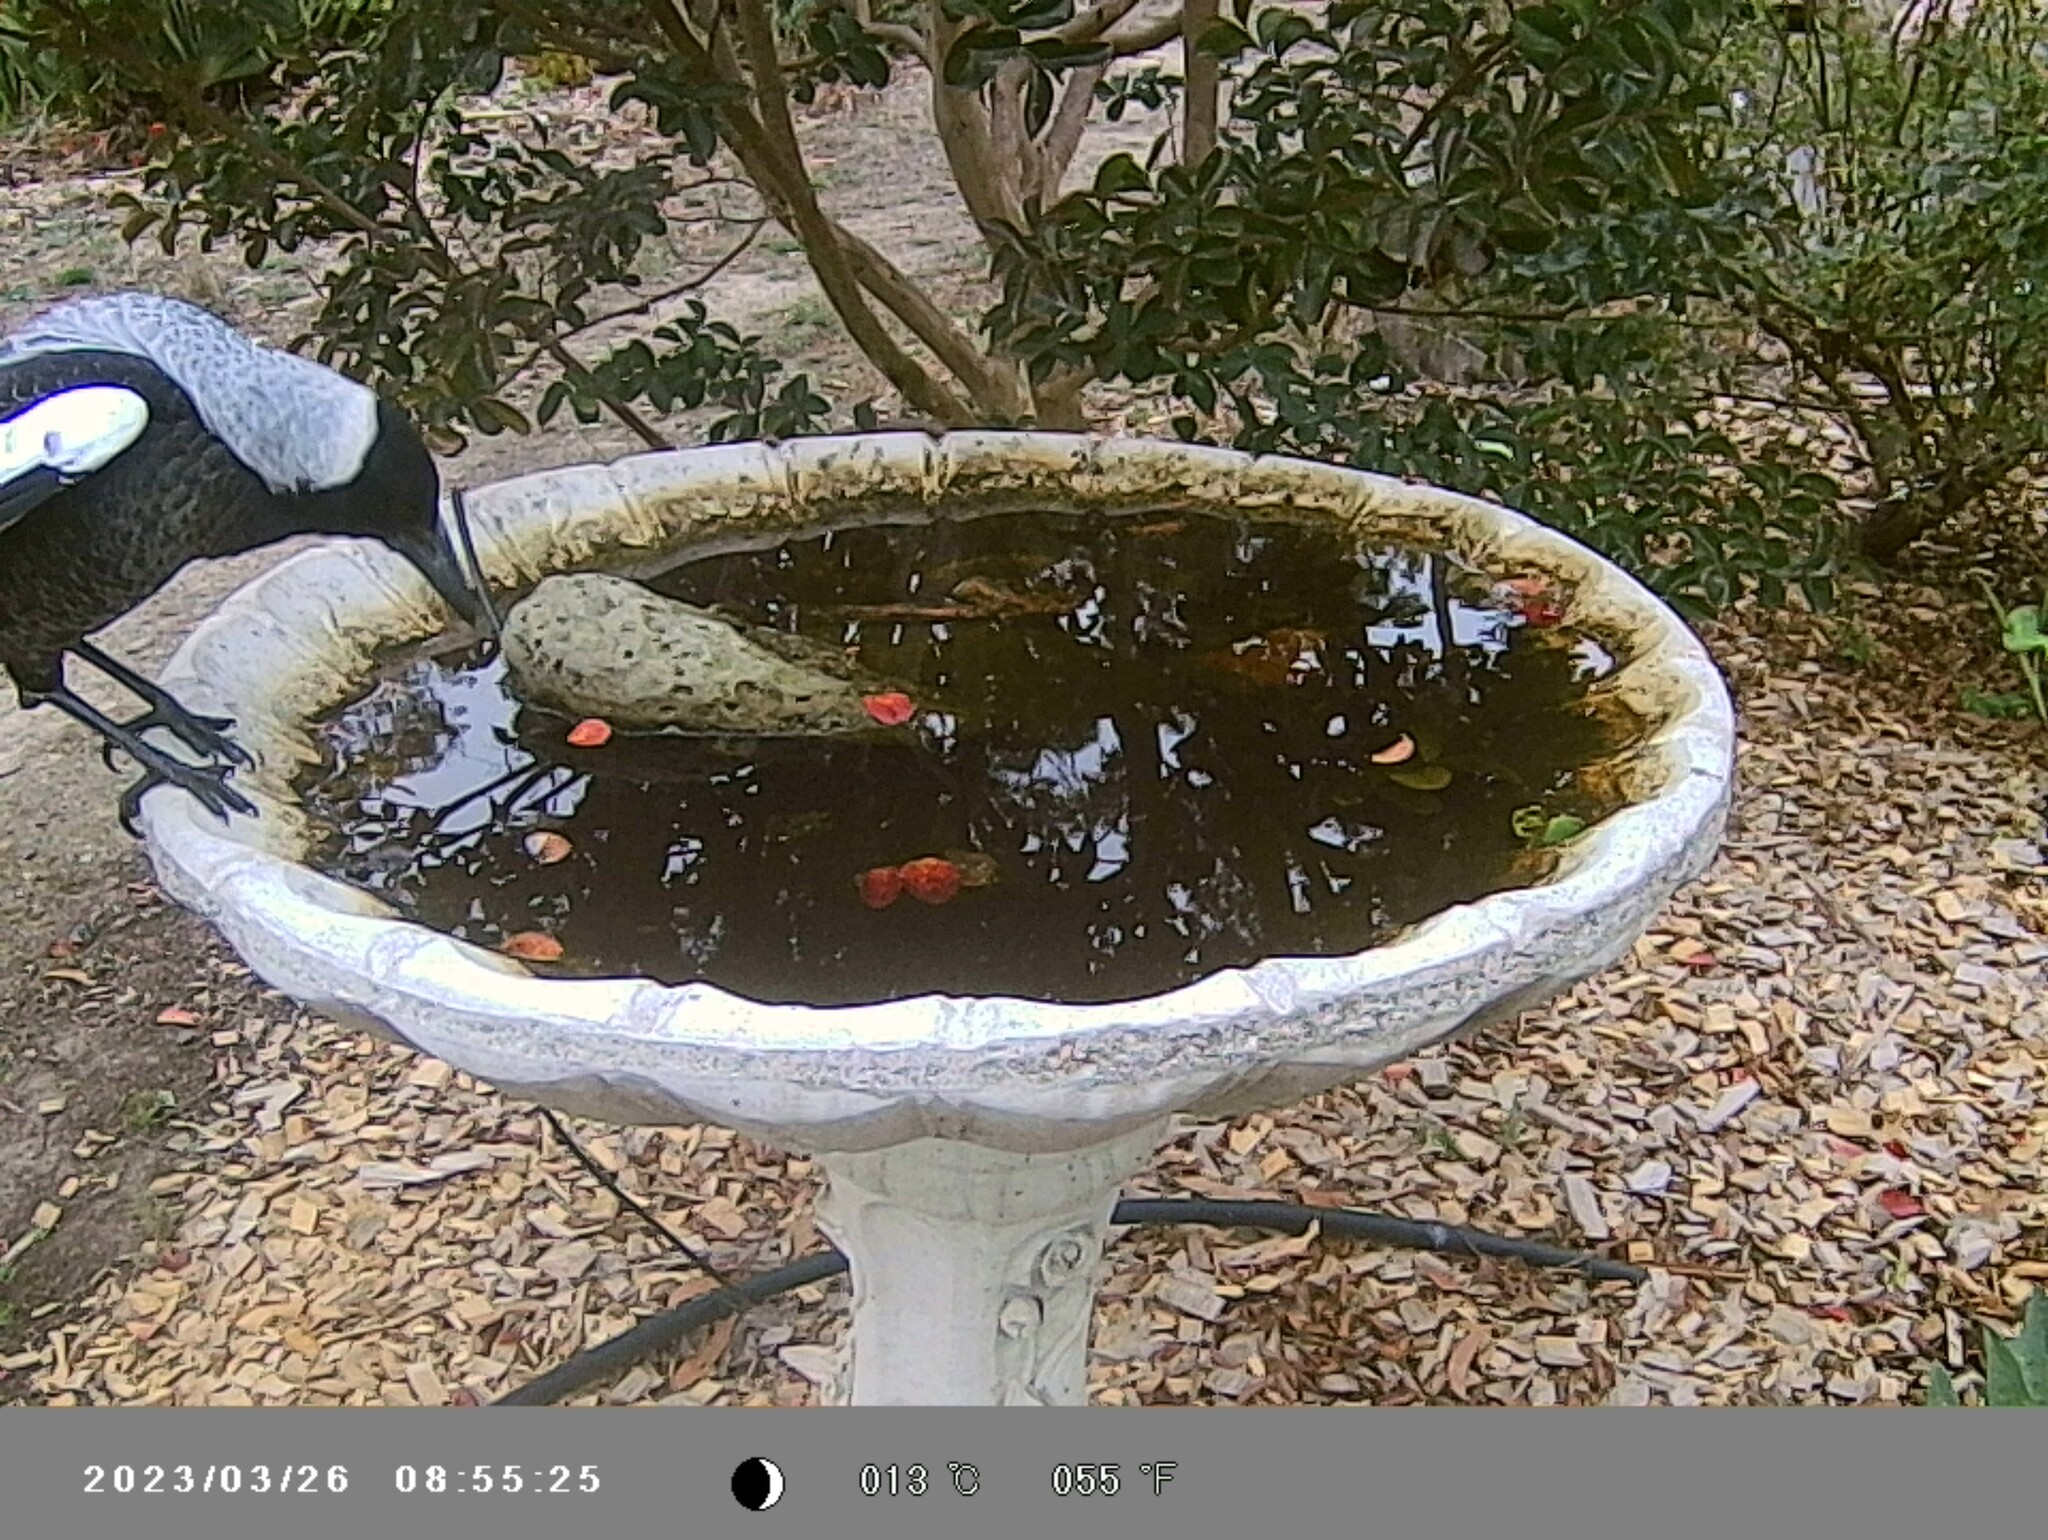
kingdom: Animalia
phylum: Chordata
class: Aves
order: Passeriformes
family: Cracticidae
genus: Gymnorhina
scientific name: Gymnorhina tibicen
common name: Australian magpie
